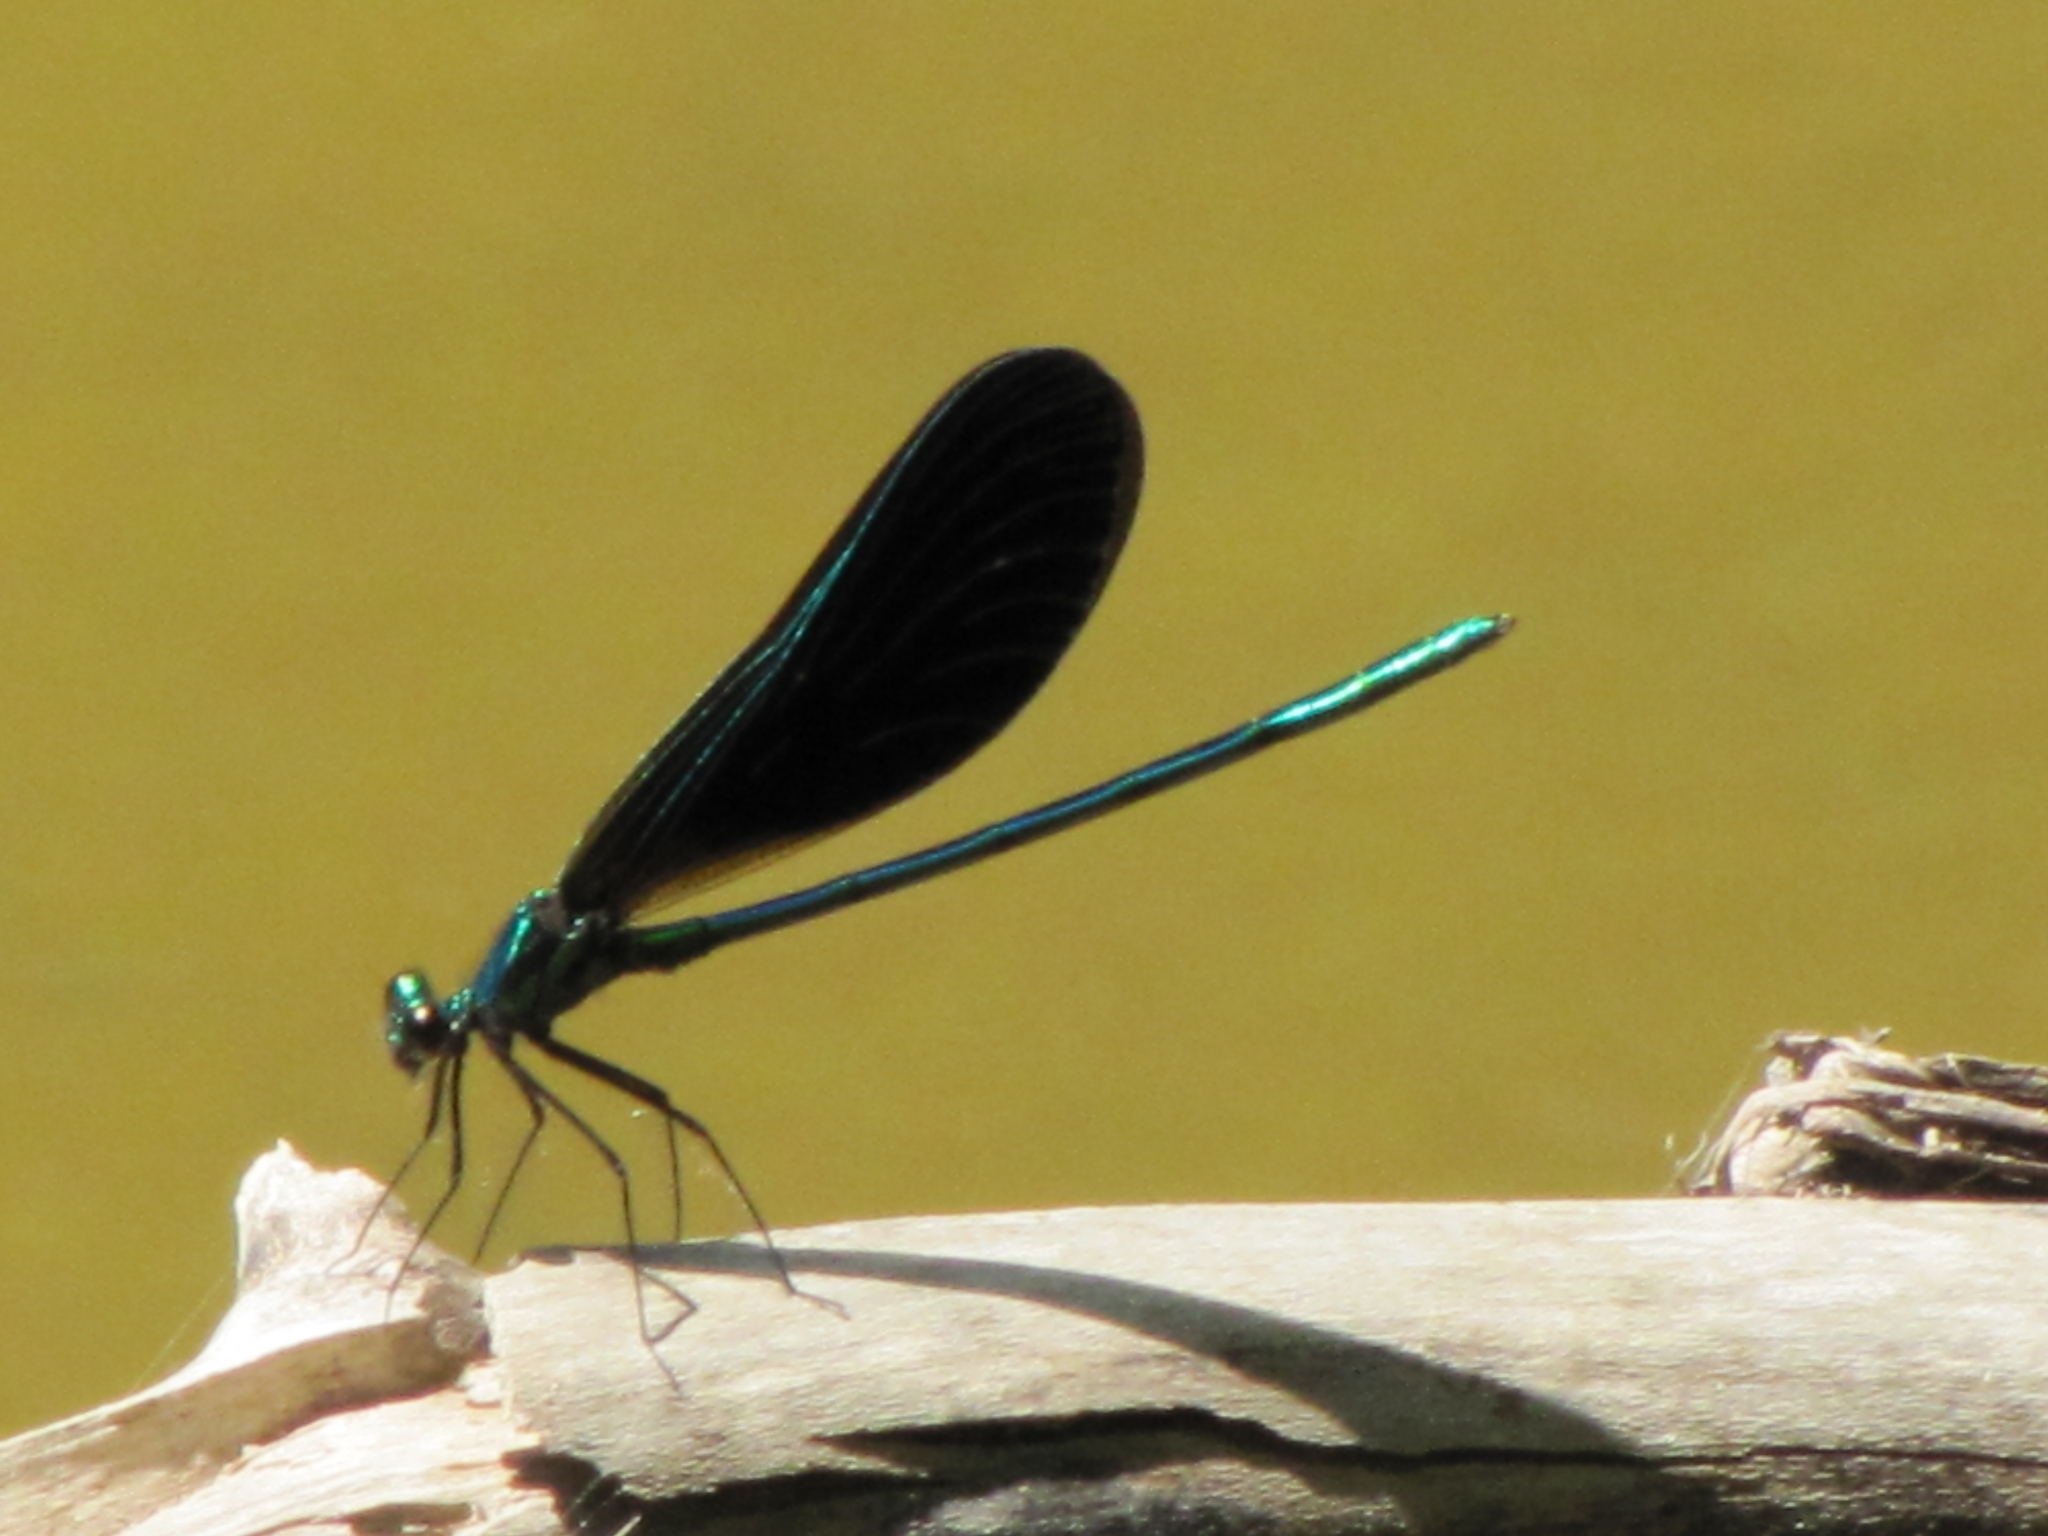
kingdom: Animalia
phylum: Arthropoda
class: Insecta
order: Odonata
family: Calopterygidae
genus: Calopteryx
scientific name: Calopteryx maculata
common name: Ebony jewelwing
